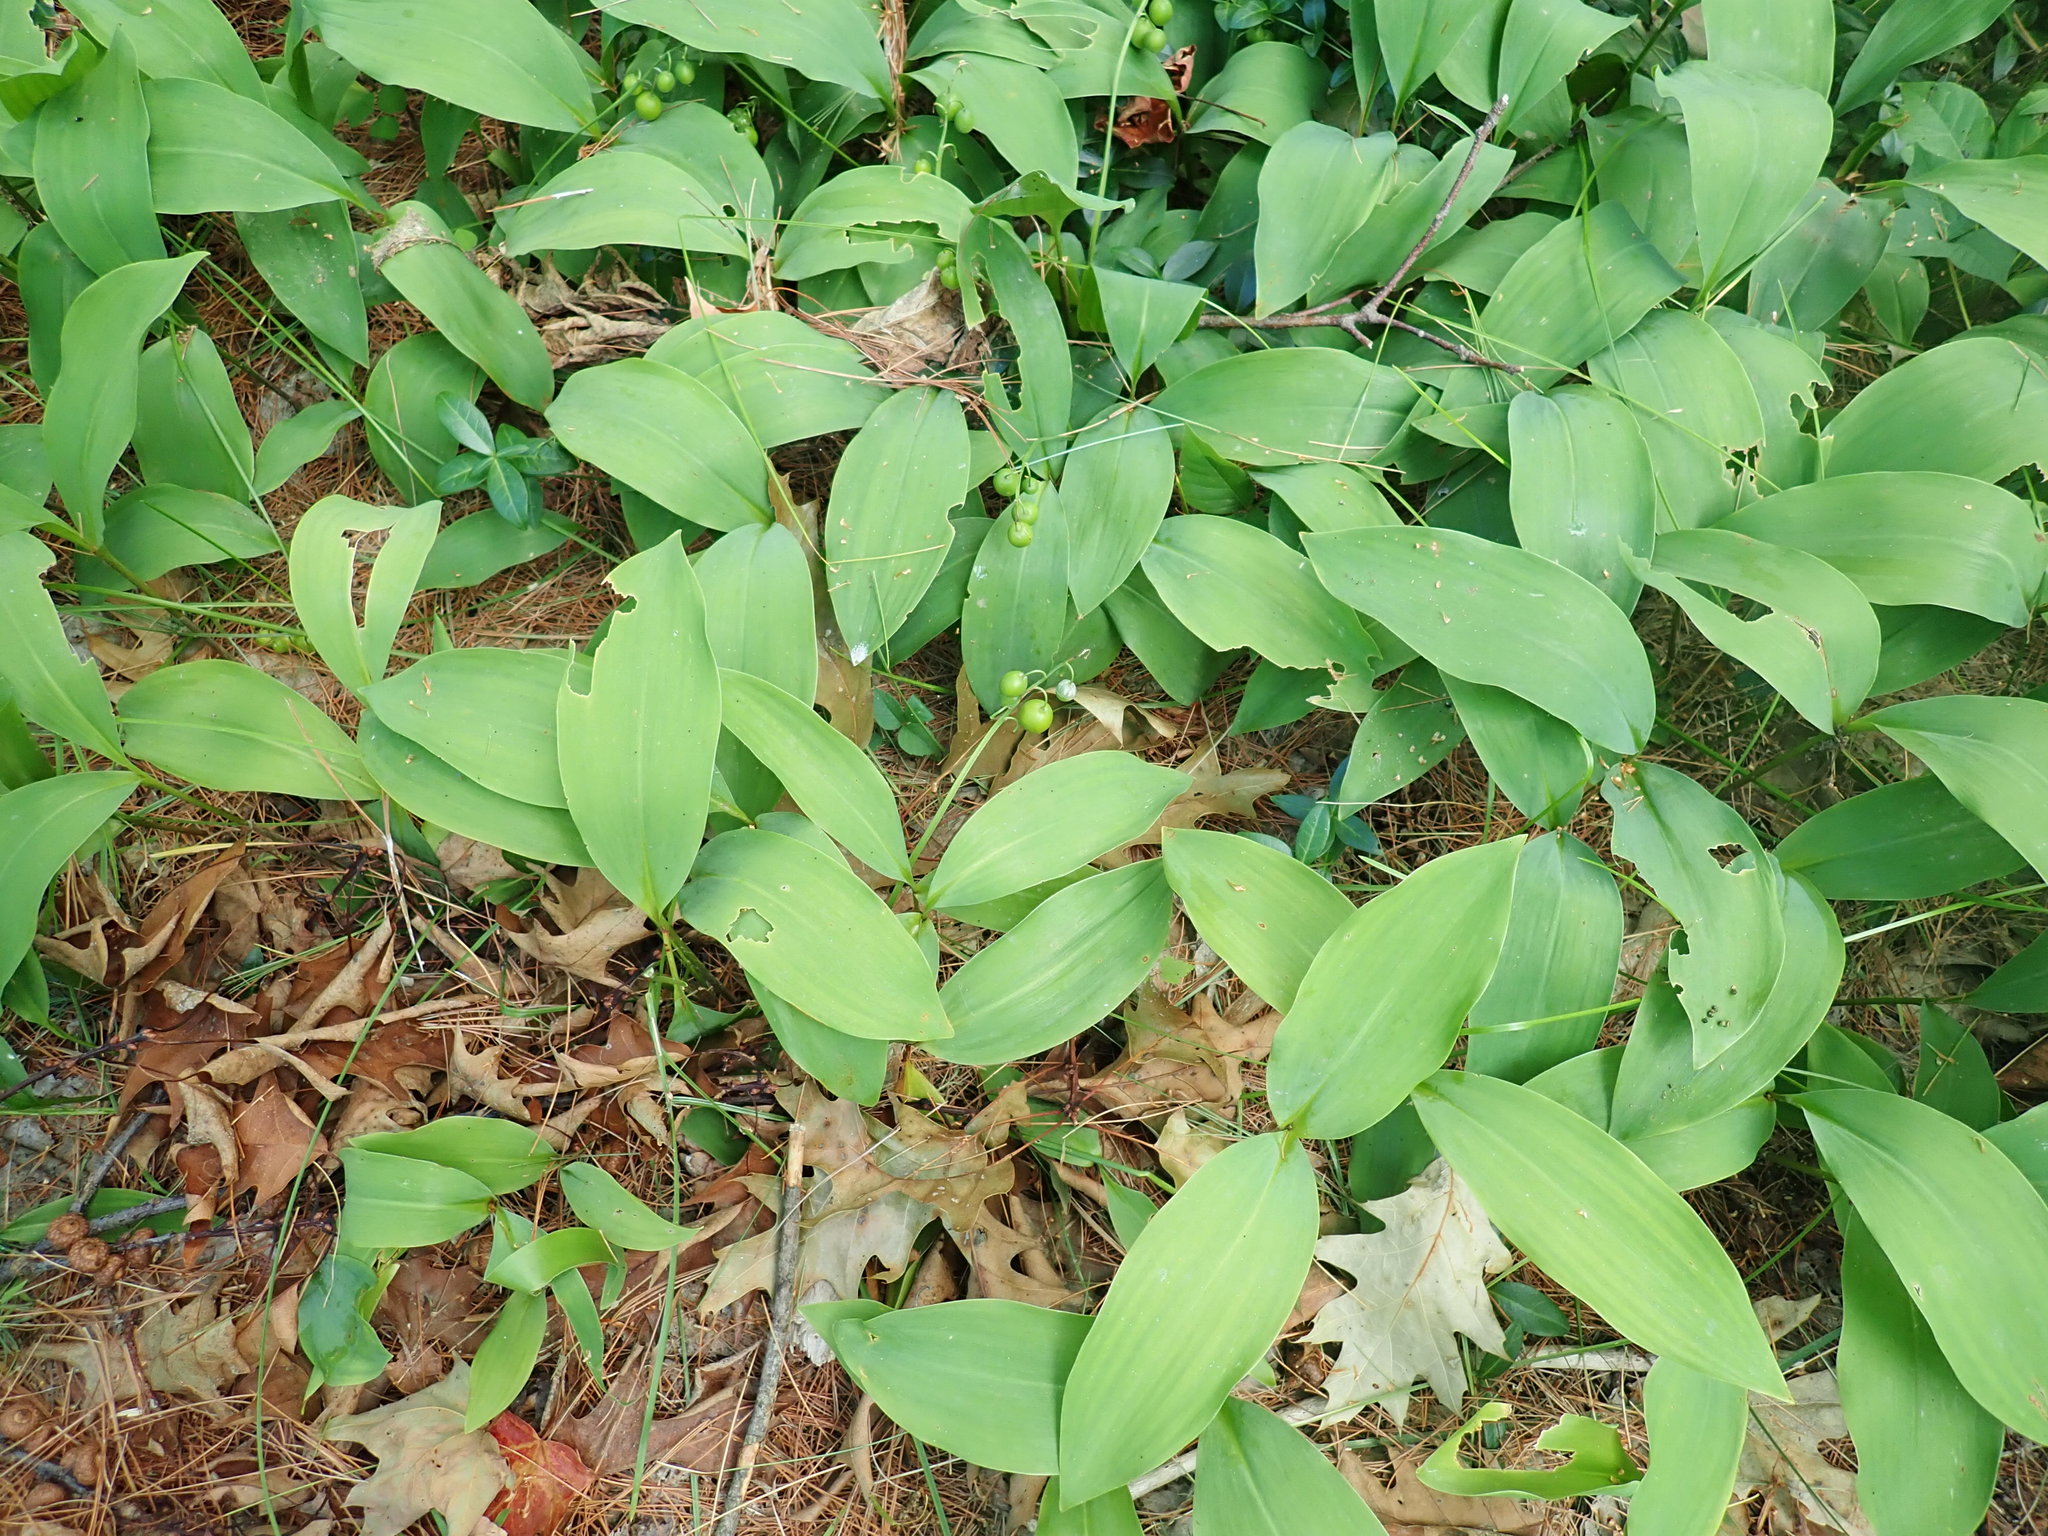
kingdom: Plantae
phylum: Tracheophyta
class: Liliopsida
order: Asparagales
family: Asparagaceae
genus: Convallaria
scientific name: Convallaria majalis
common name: Lily-of-the-valley
